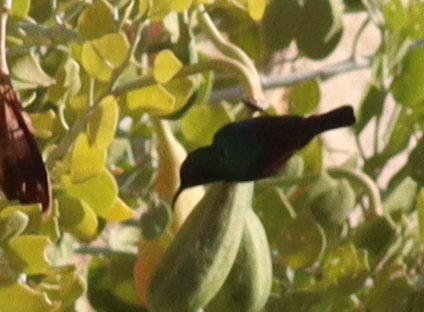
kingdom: Animalia
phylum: Chordata
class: Aves
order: Passeriformes
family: Nectariniidae
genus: Cinnyris
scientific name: Cinnyris osea
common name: Palestine sunbird
